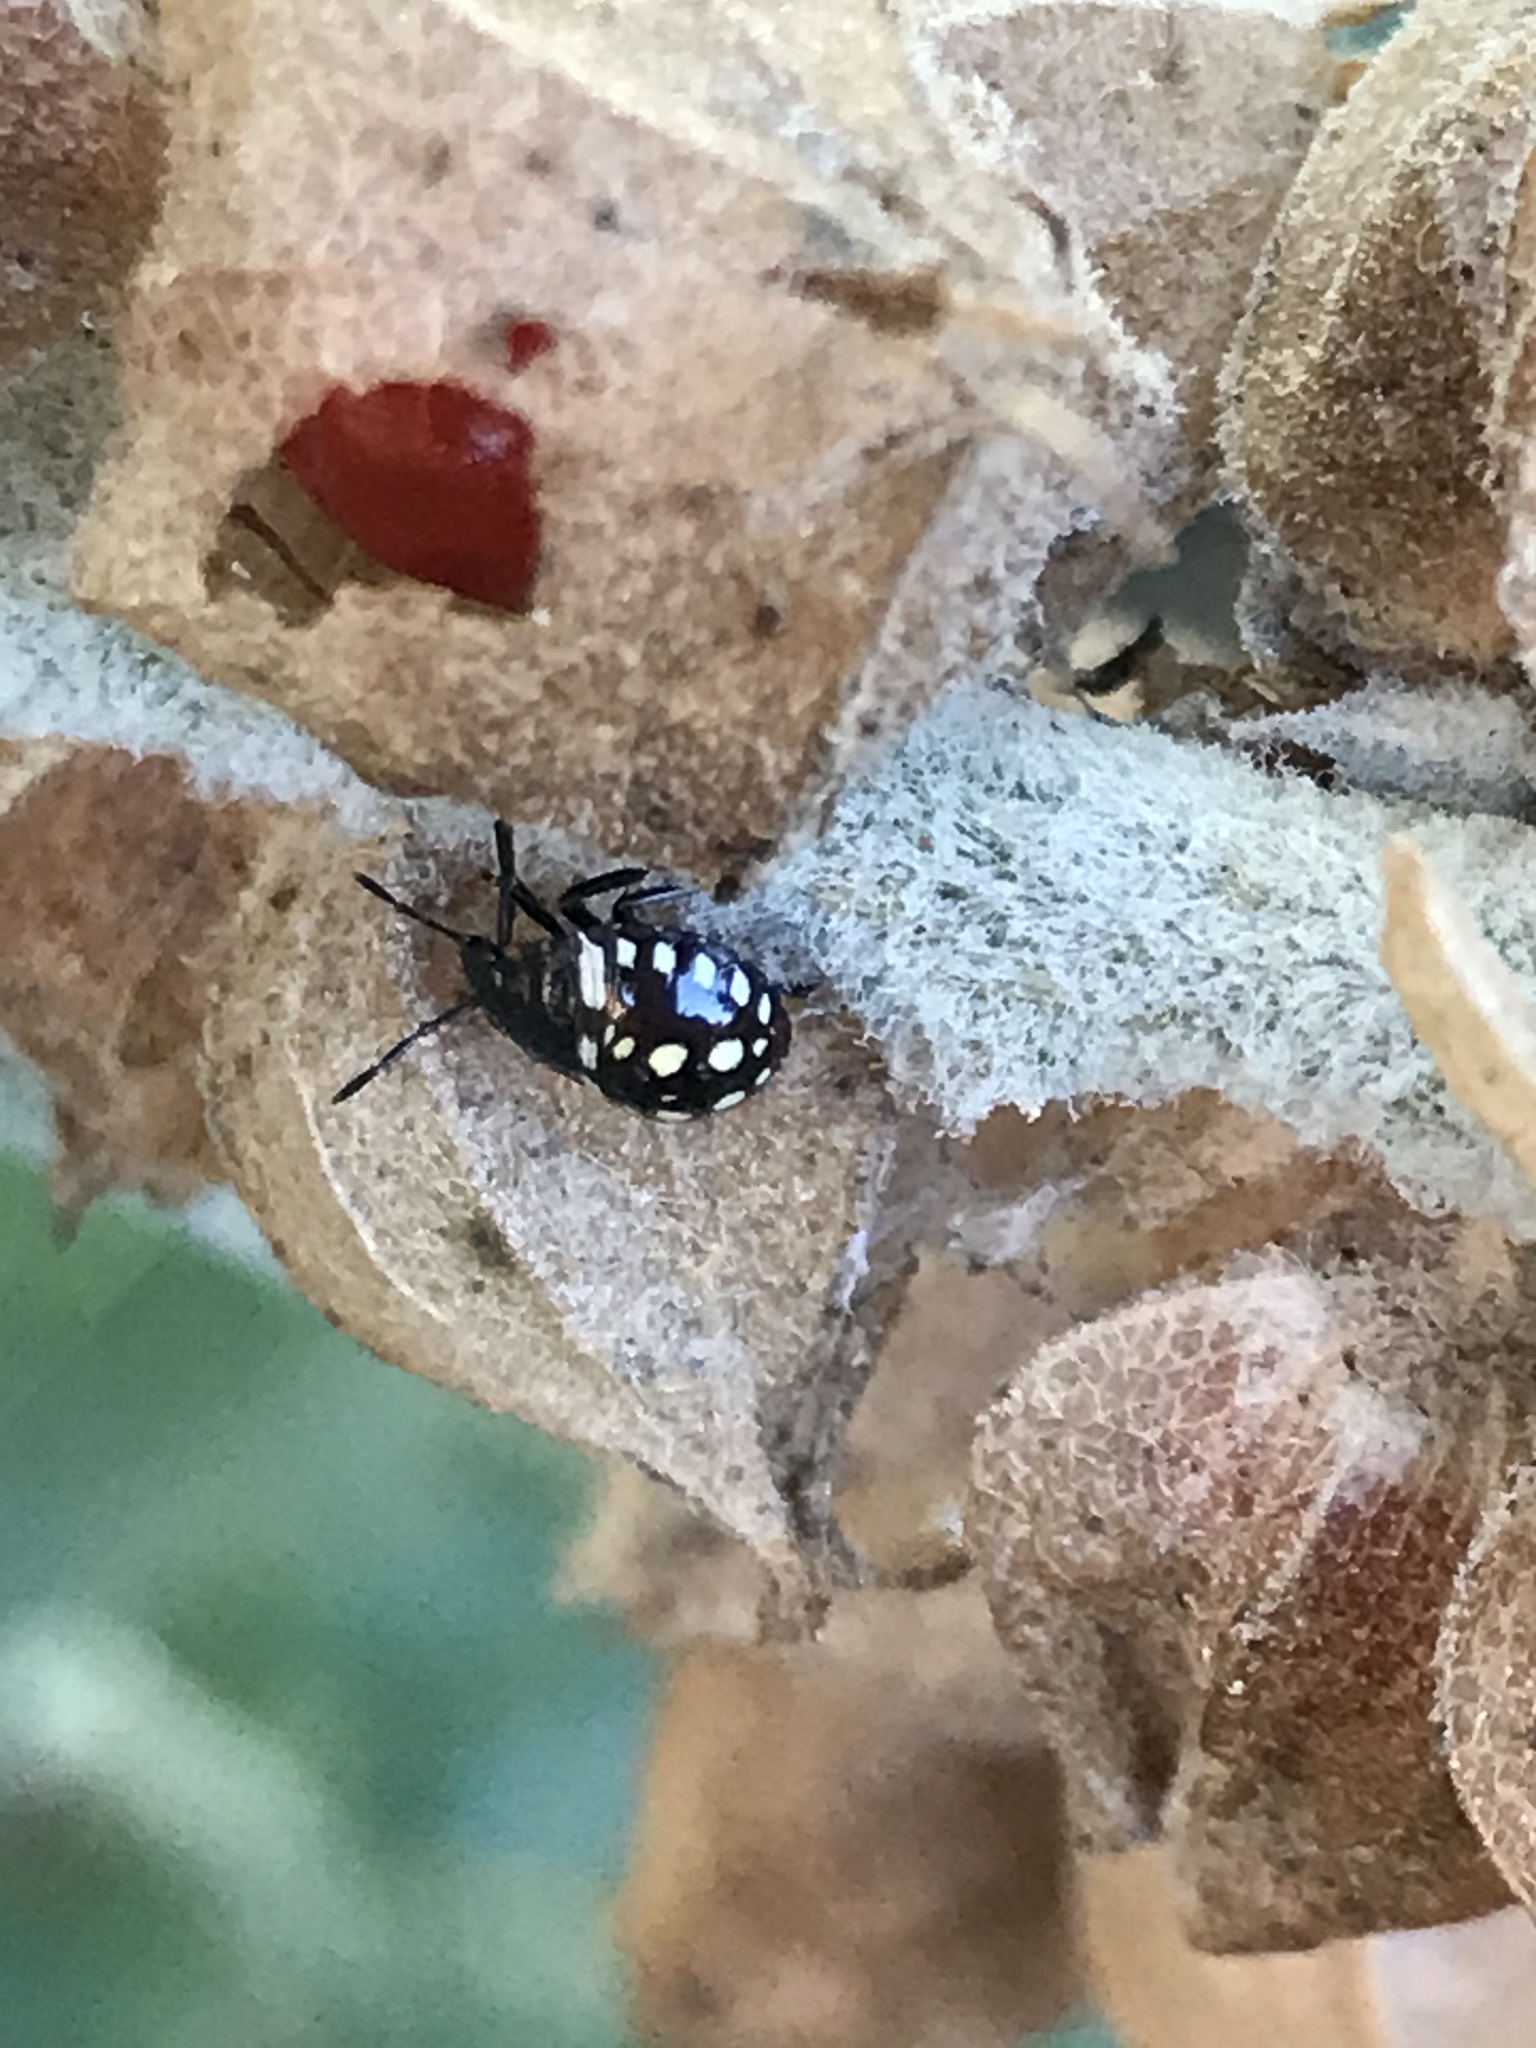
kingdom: Animalia
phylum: Arthropoda
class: Insecta
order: Hemiptera
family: Pentatomidae
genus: Nezara
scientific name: Nezara viridula
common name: Southern green stink bug
